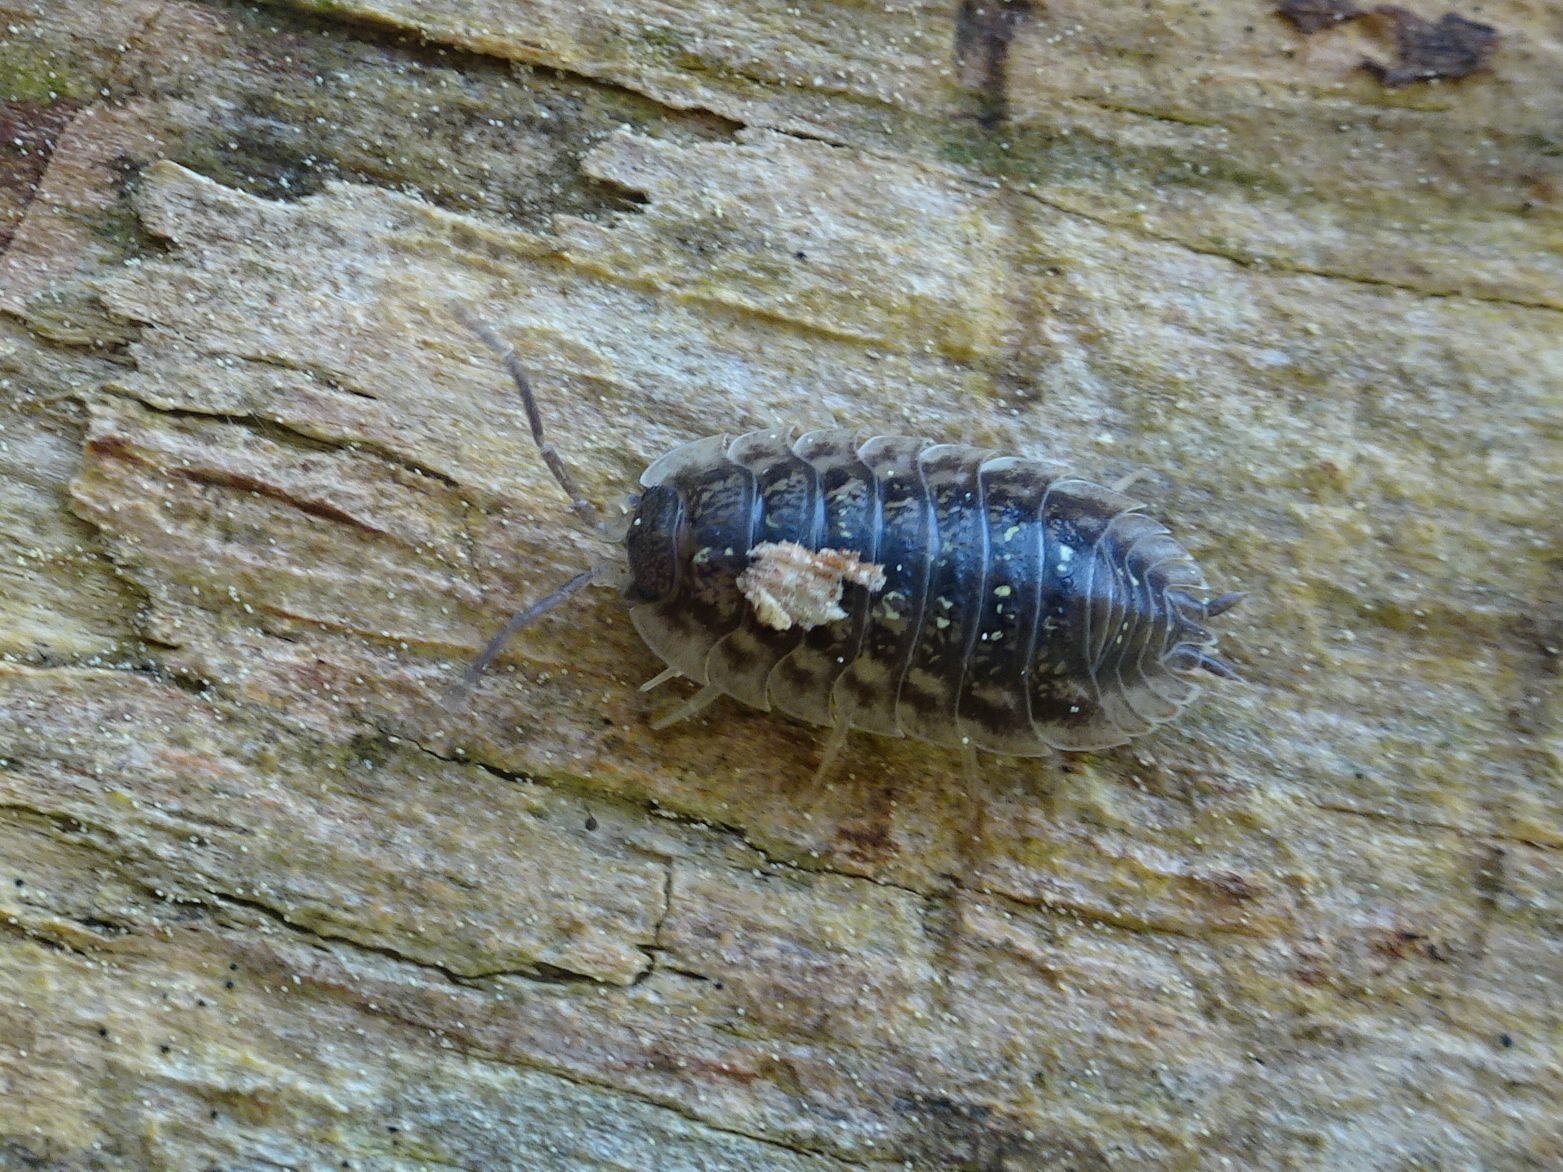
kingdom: Animalia
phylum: Arthropoda
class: Malacostraca
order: Isopoda
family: Oniscidae
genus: Oniscus
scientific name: Oniscus asellus
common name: Common shiny woodlouse
